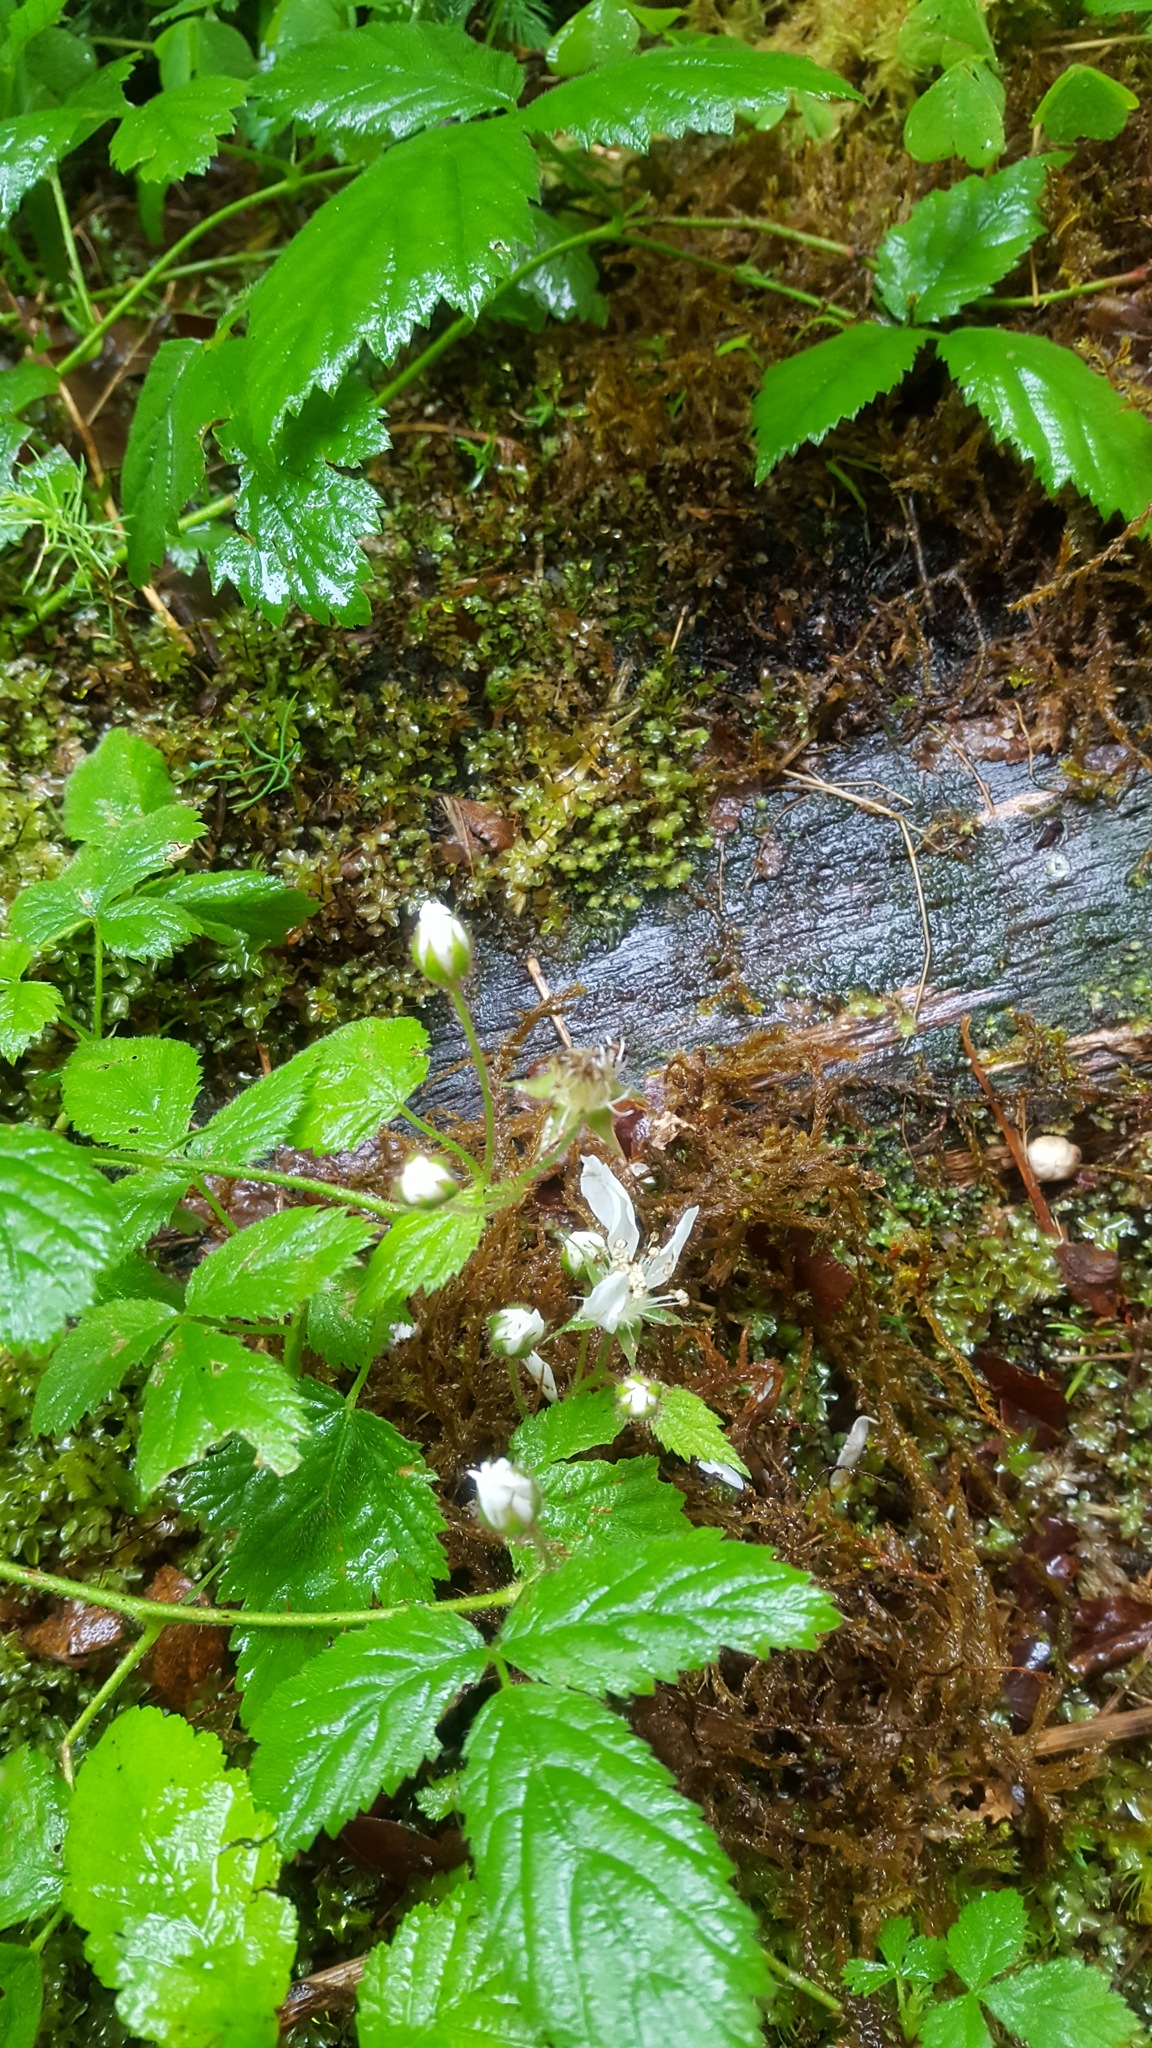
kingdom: Plantae
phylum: Tracheophyta
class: Magnoliopsida
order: Rosales
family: Rosaceae
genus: Rubus
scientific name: Rubus ursinus
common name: Pacific blackberry
